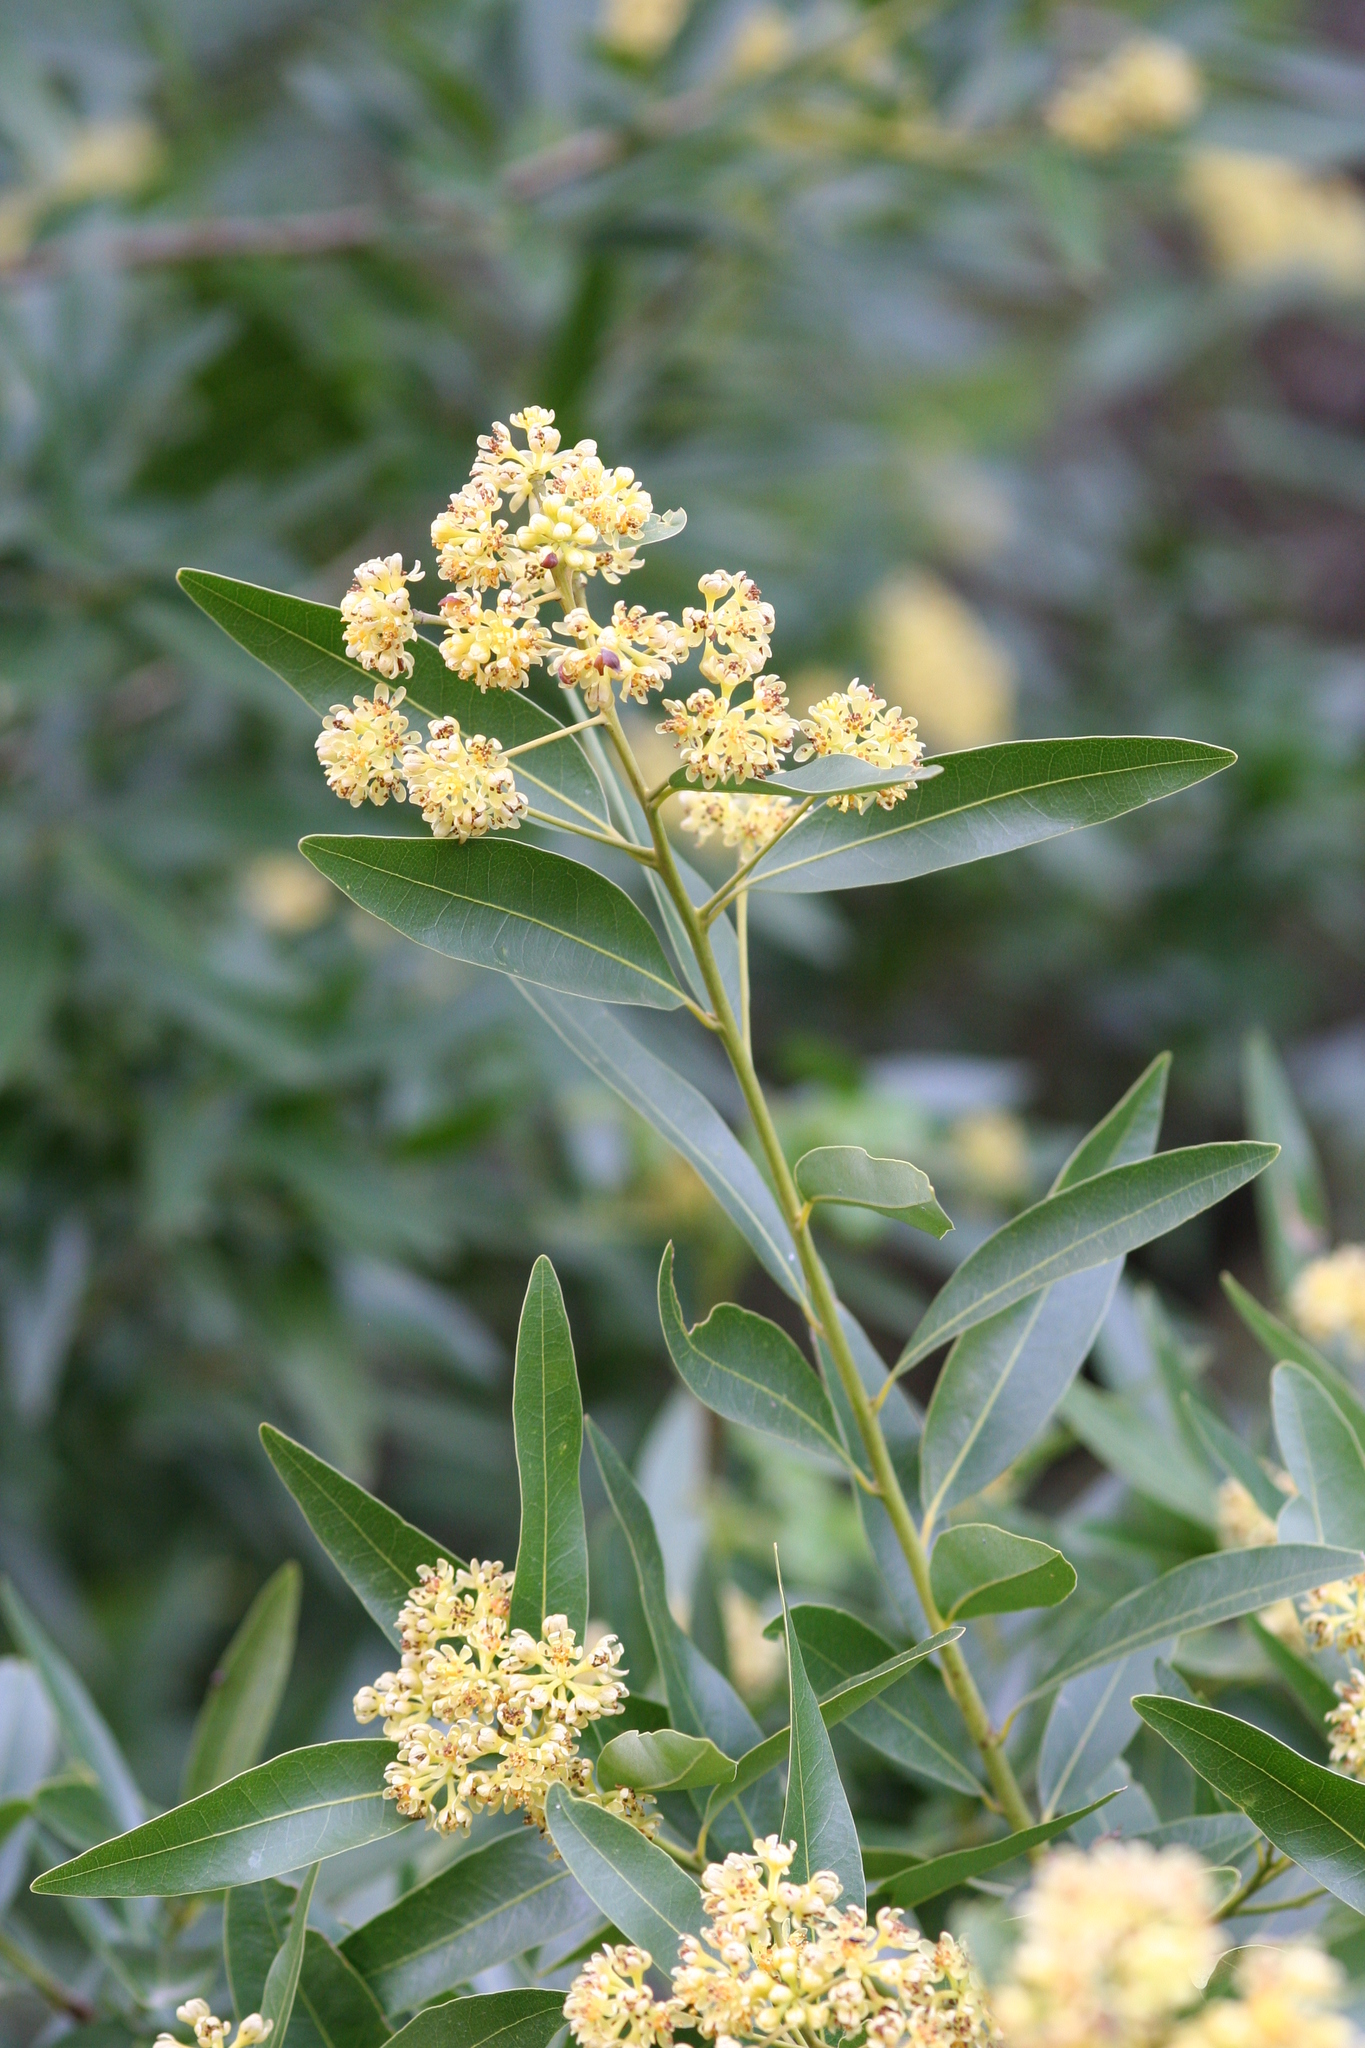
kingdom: Plantae
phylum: Tracheophyta
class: Magnoliopsida
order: Laurales
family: Lauraceae
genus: Umbellularia
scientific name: Umbellularia californica
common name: California bay
